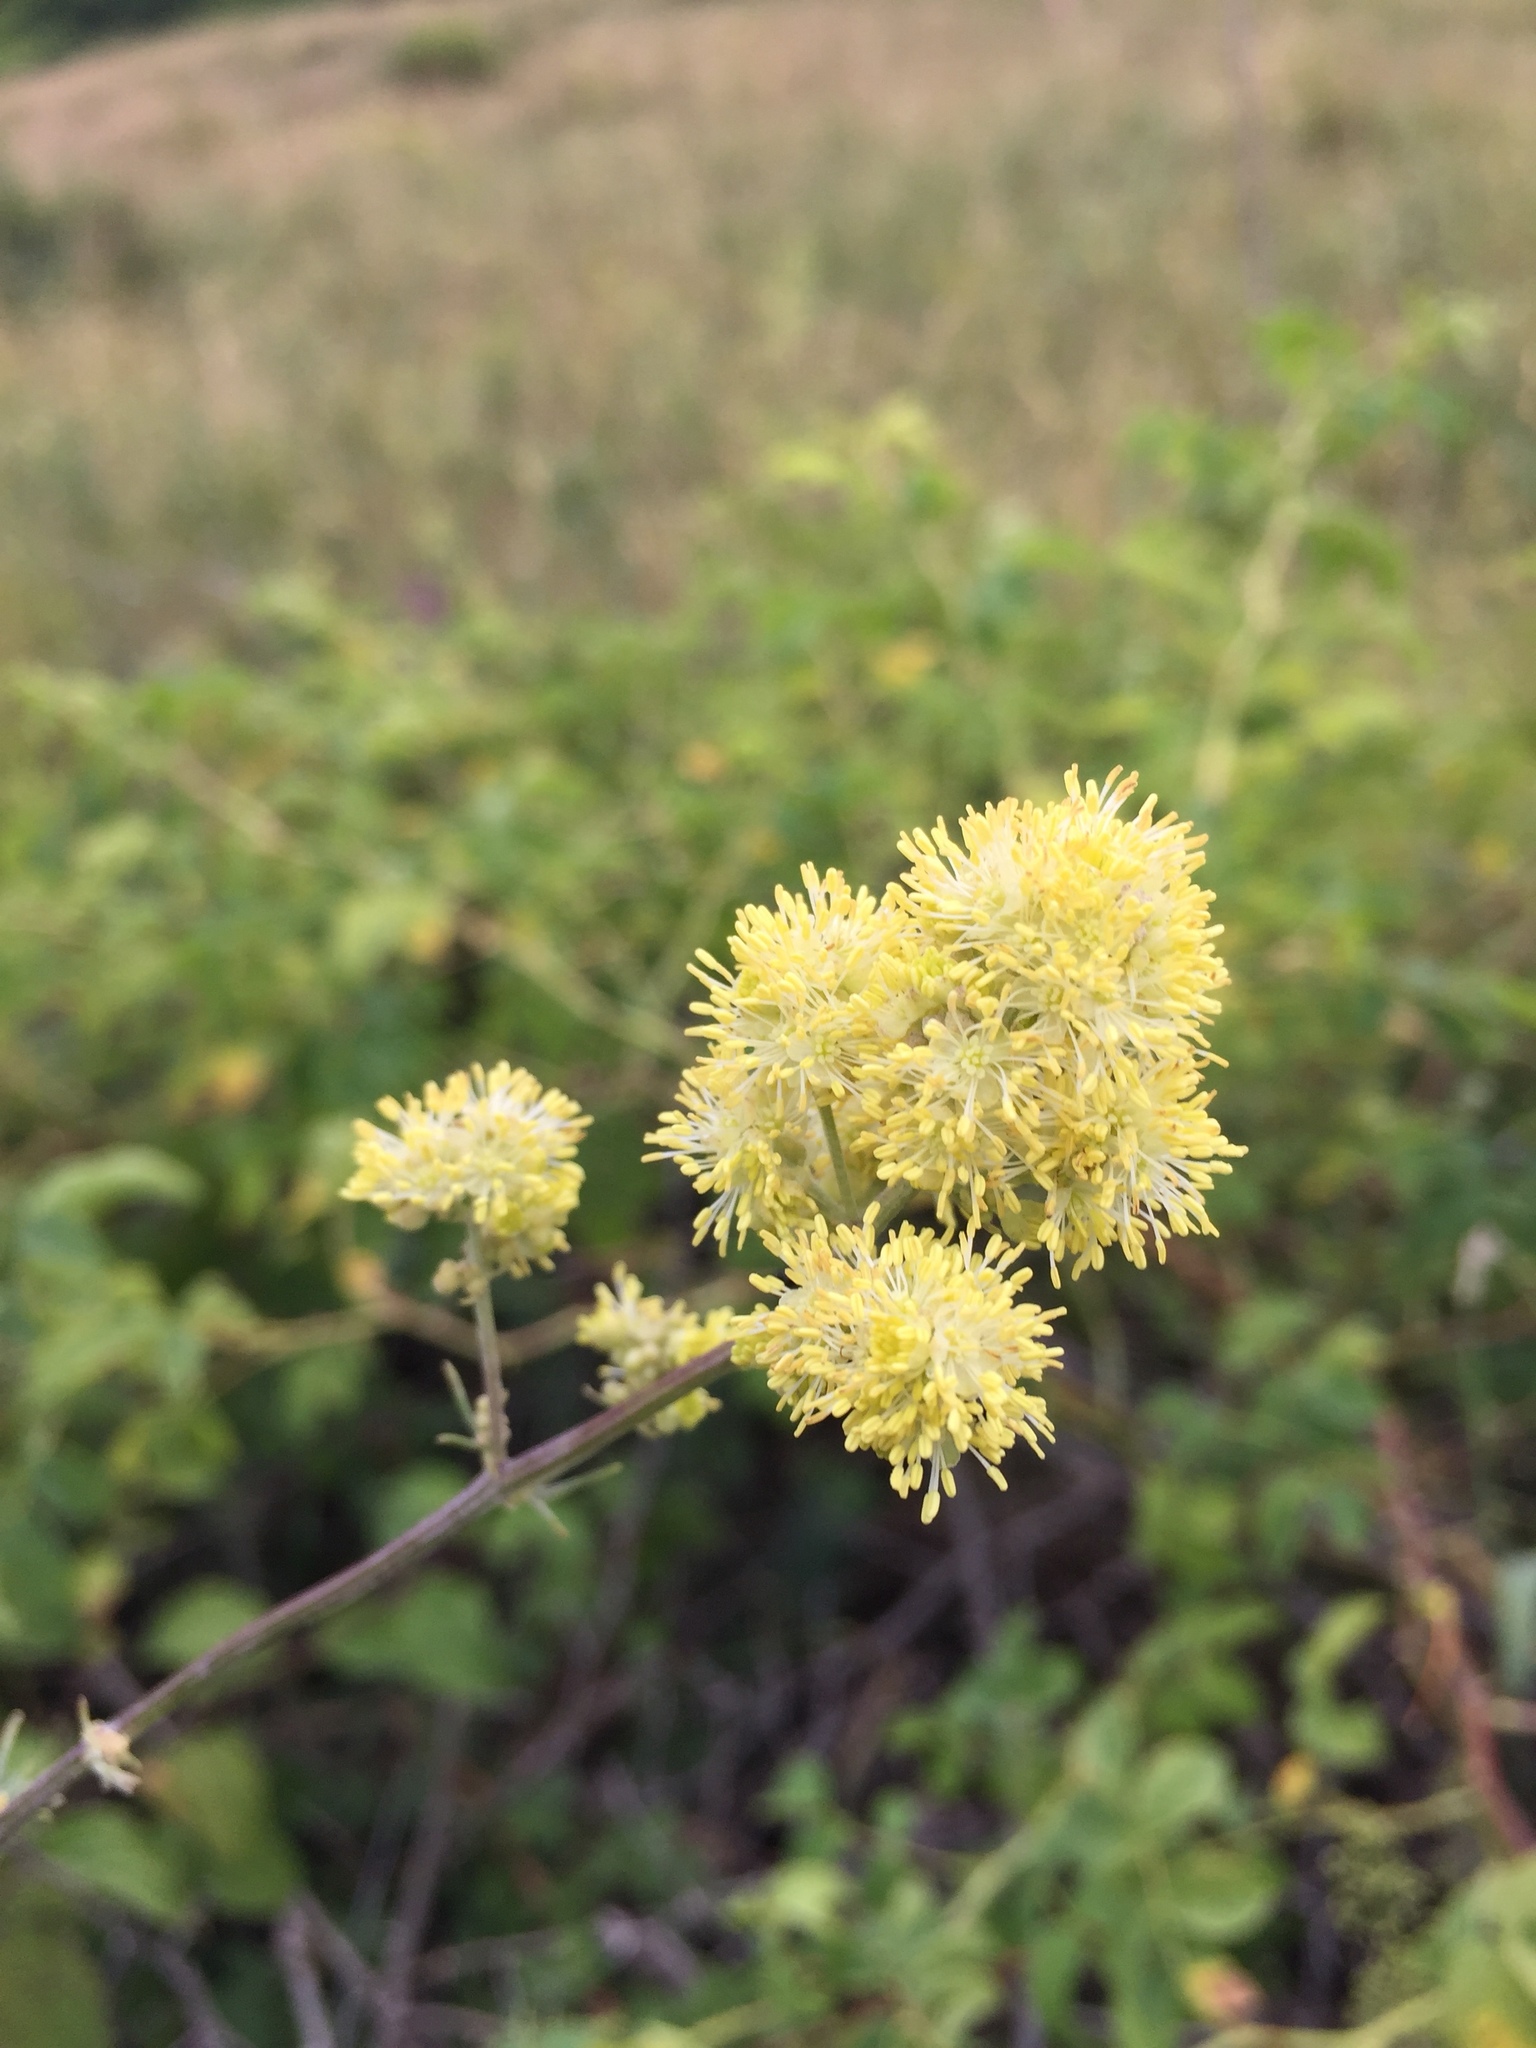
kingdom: Plantae
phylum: Tracheophyta
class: Magnoliopsida
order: Ranunculales
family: Ranunculaceae
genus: Thalictrum
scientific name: Thalictrum lucidum
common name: Shining meadow-rue
